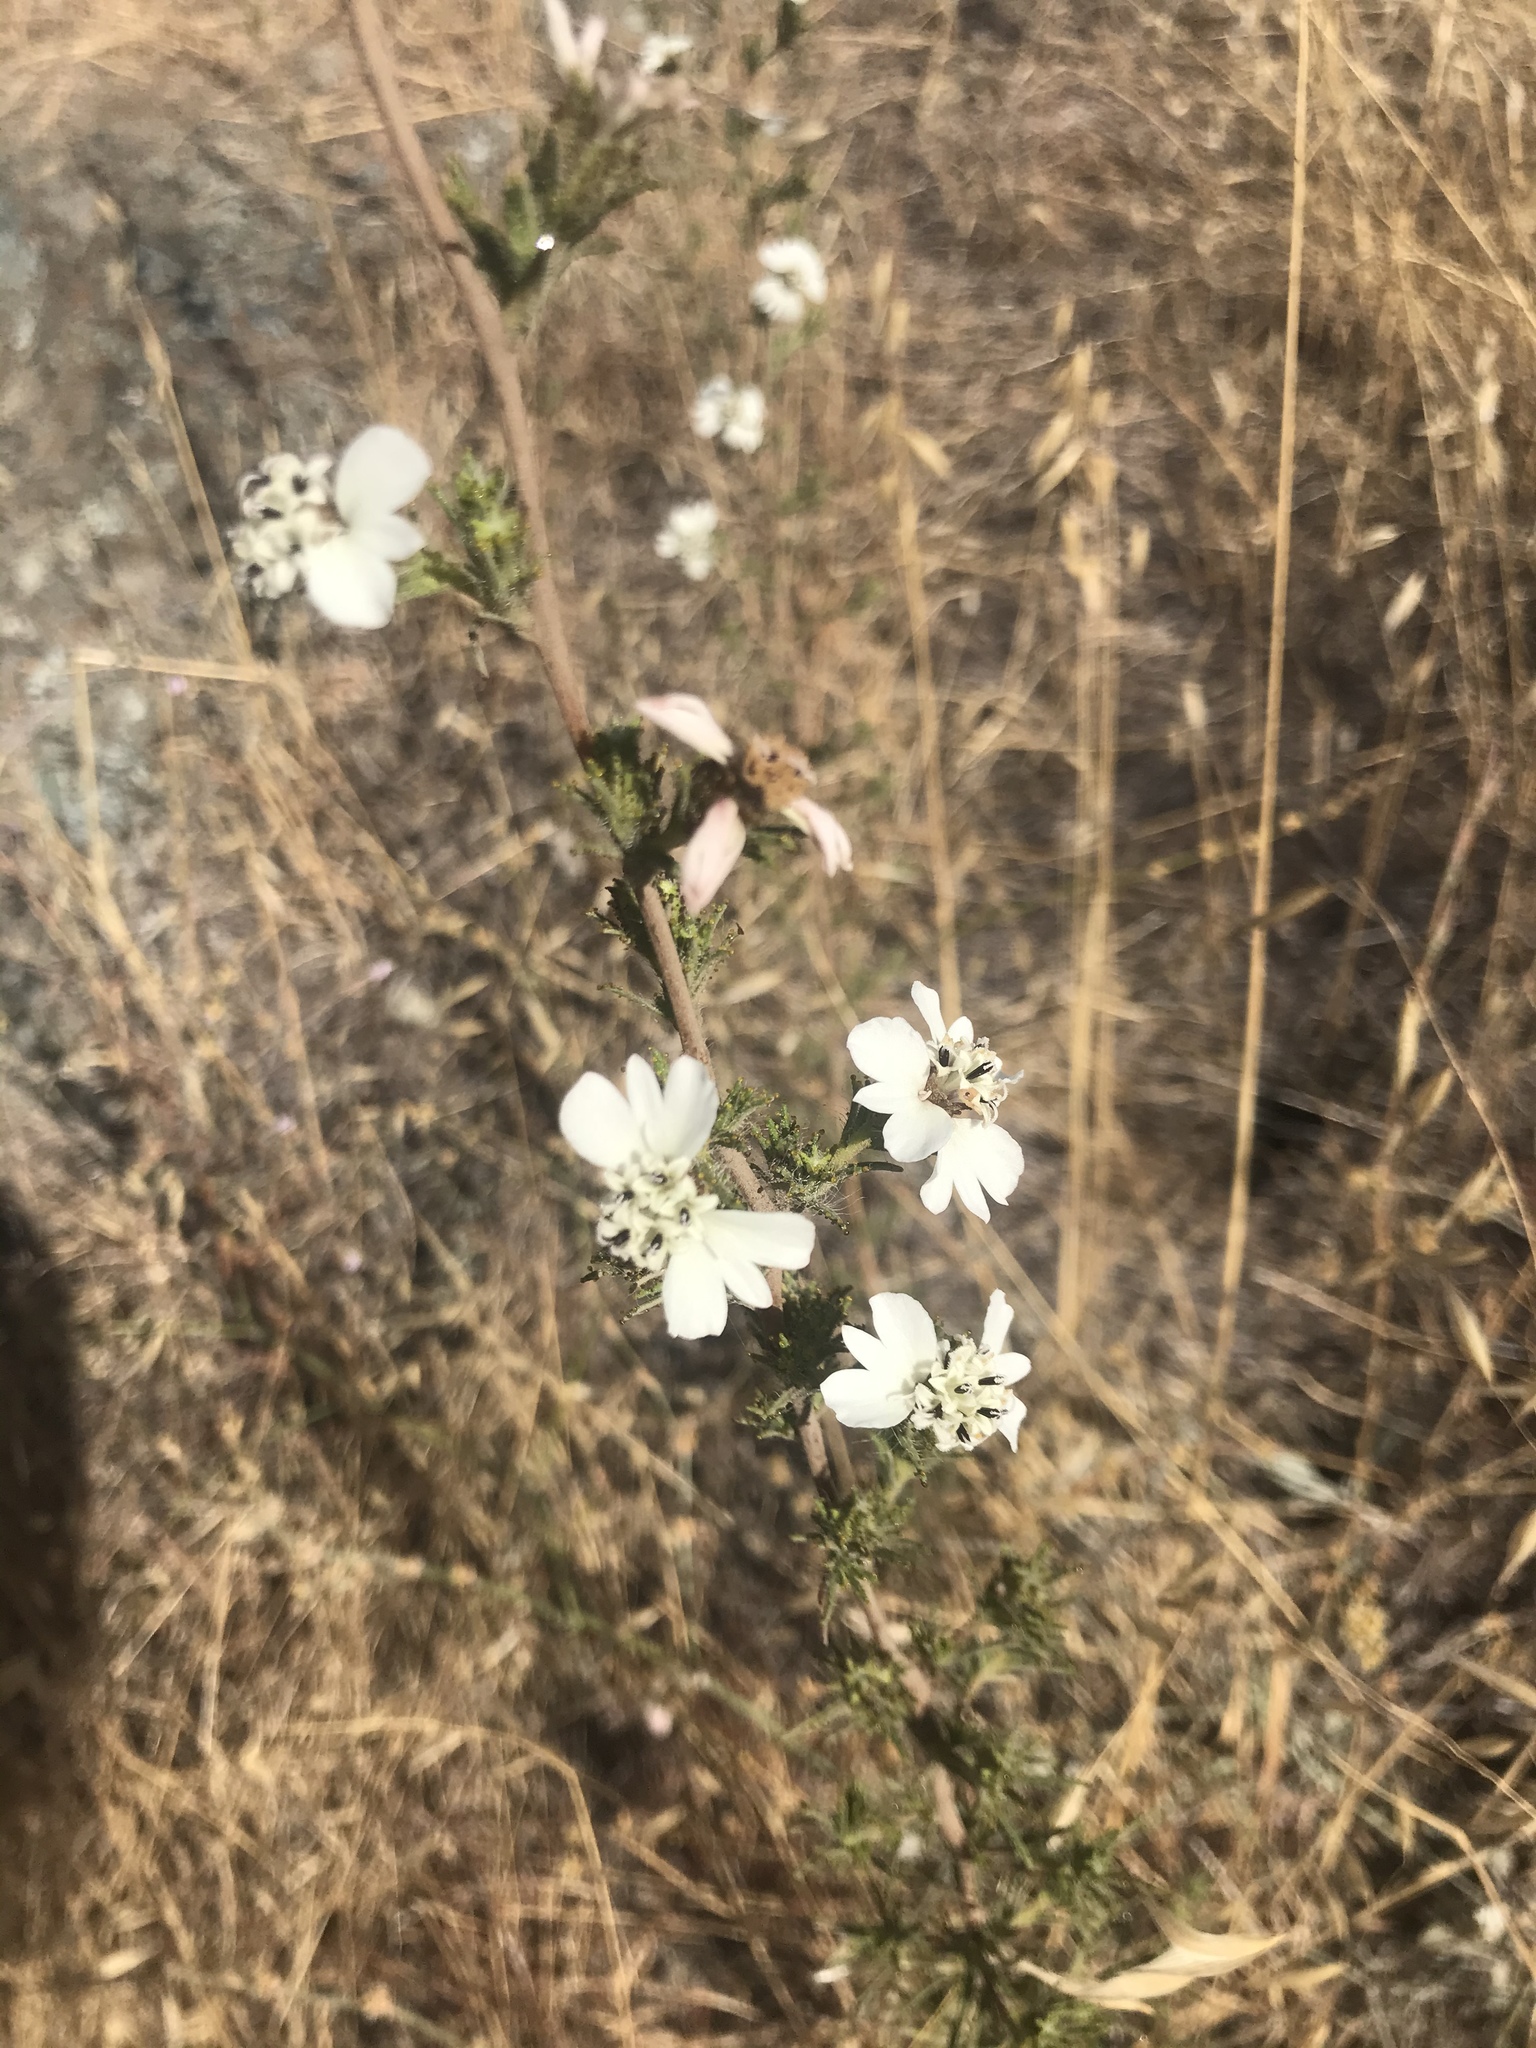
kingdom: Plantae
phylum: Tracheophyta
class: Magnoliopsida
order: Asterales
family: Asteraceae
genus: Calycadenia
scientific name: Calycadenia multiglandulosa
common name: Sticky calycadenia
